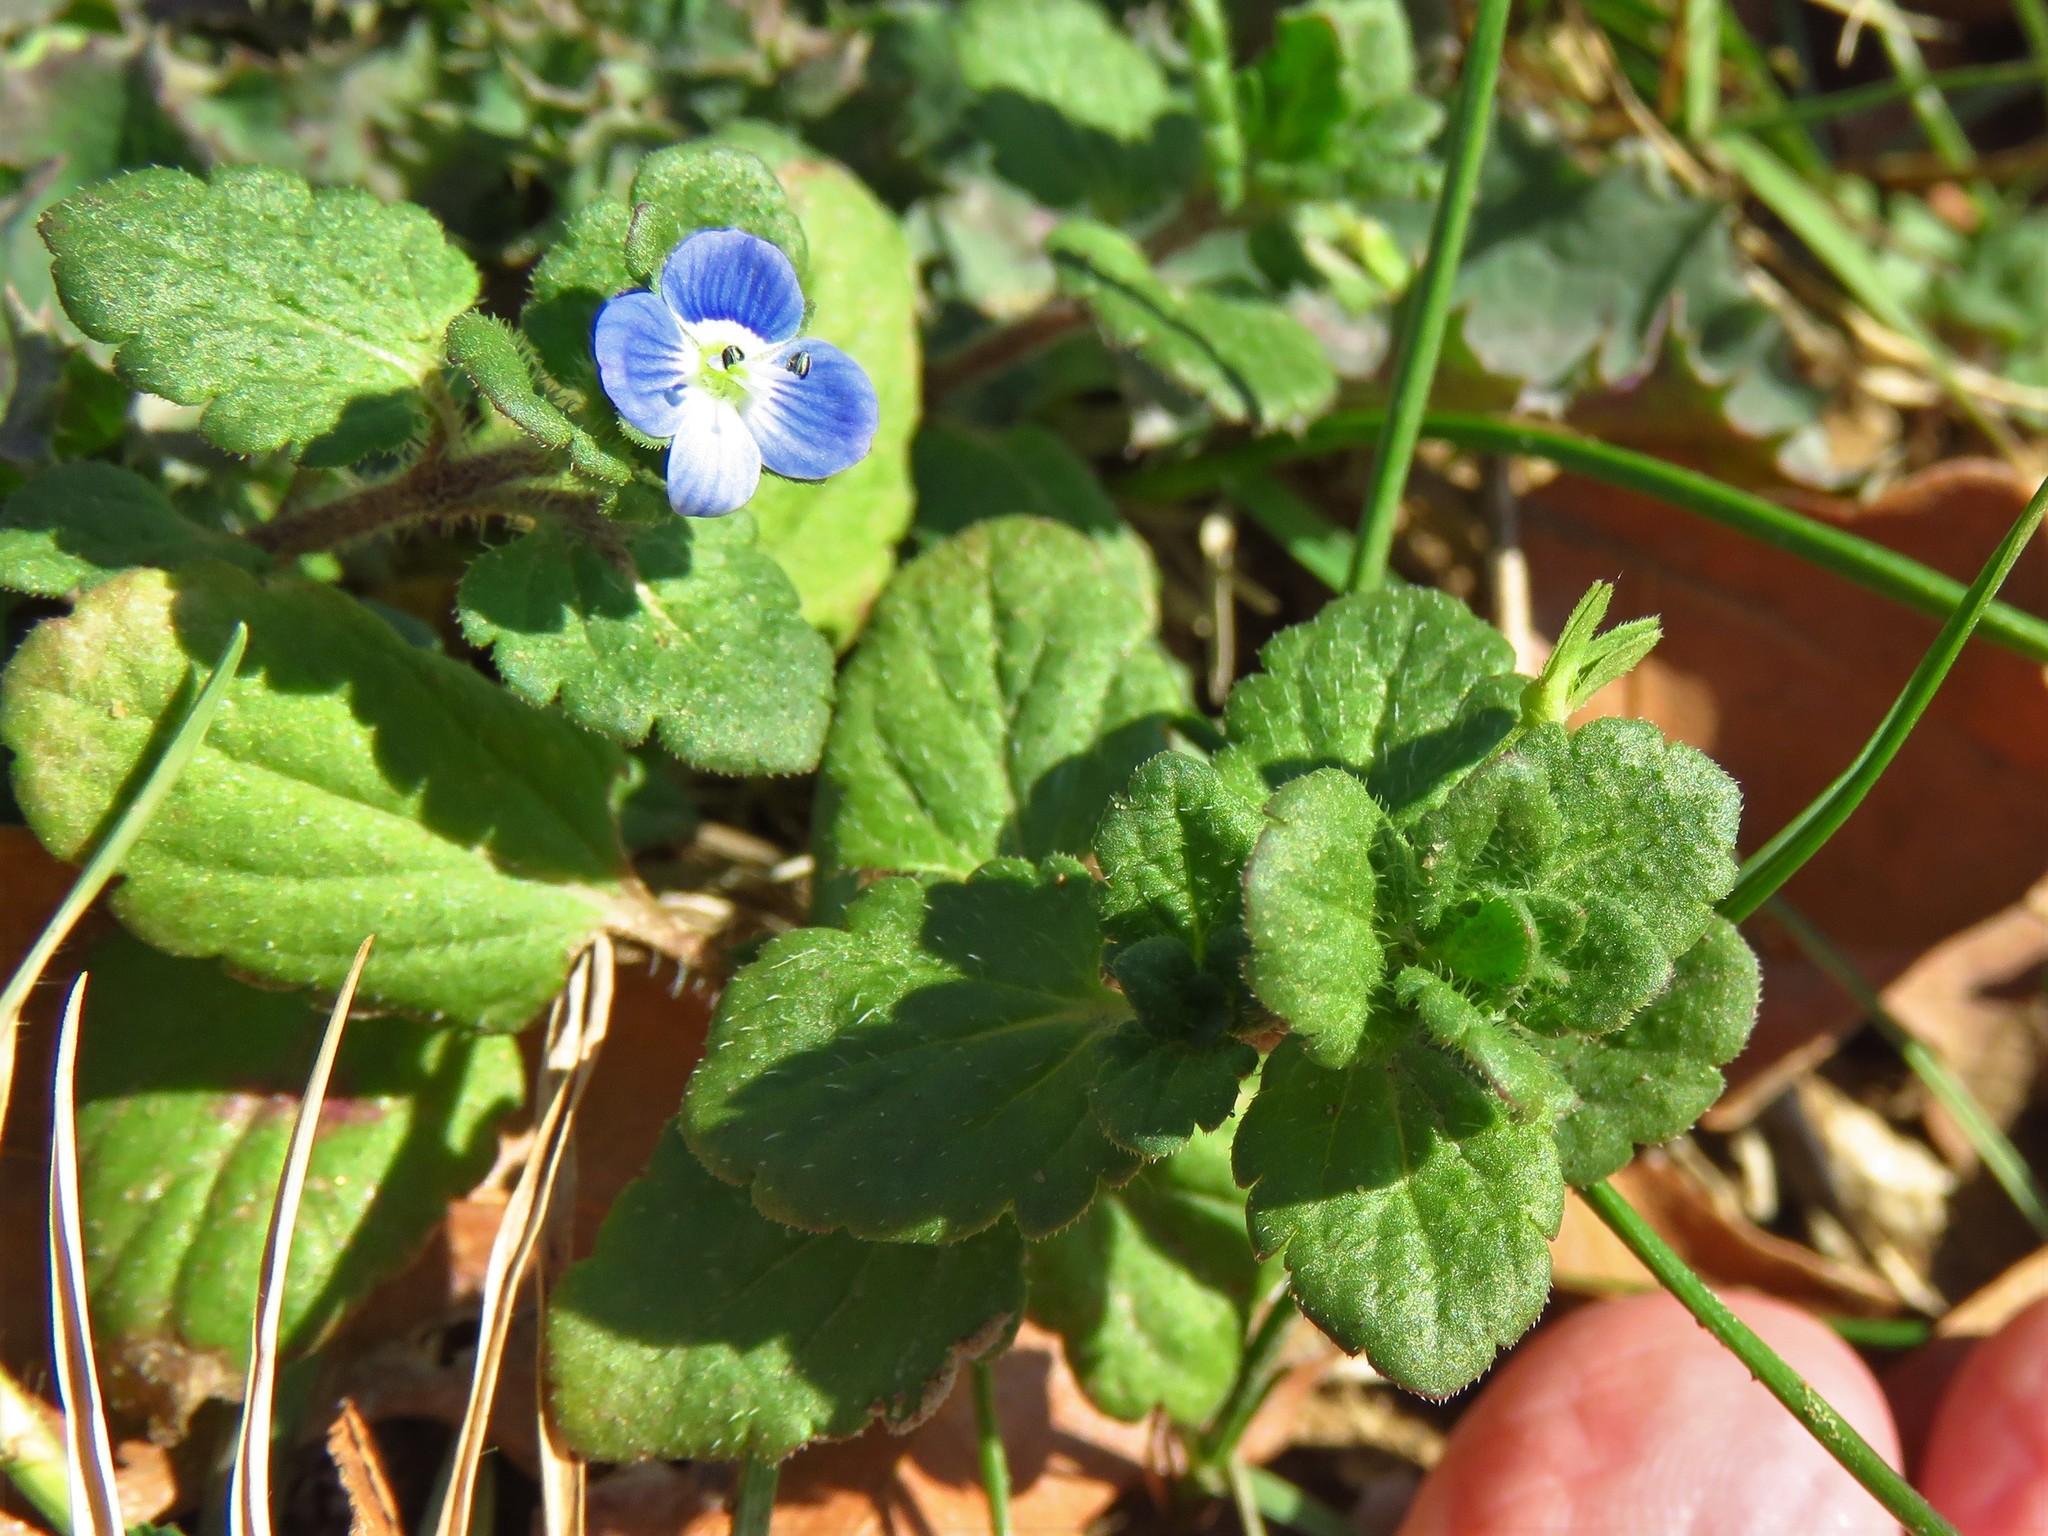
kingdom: Plantae
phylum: Tracheophyta
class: Magnoliopsida
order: Lamiales
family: Plantaginaceae
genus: Veronica
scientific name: Veronica persica
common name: Common field-speedwell
